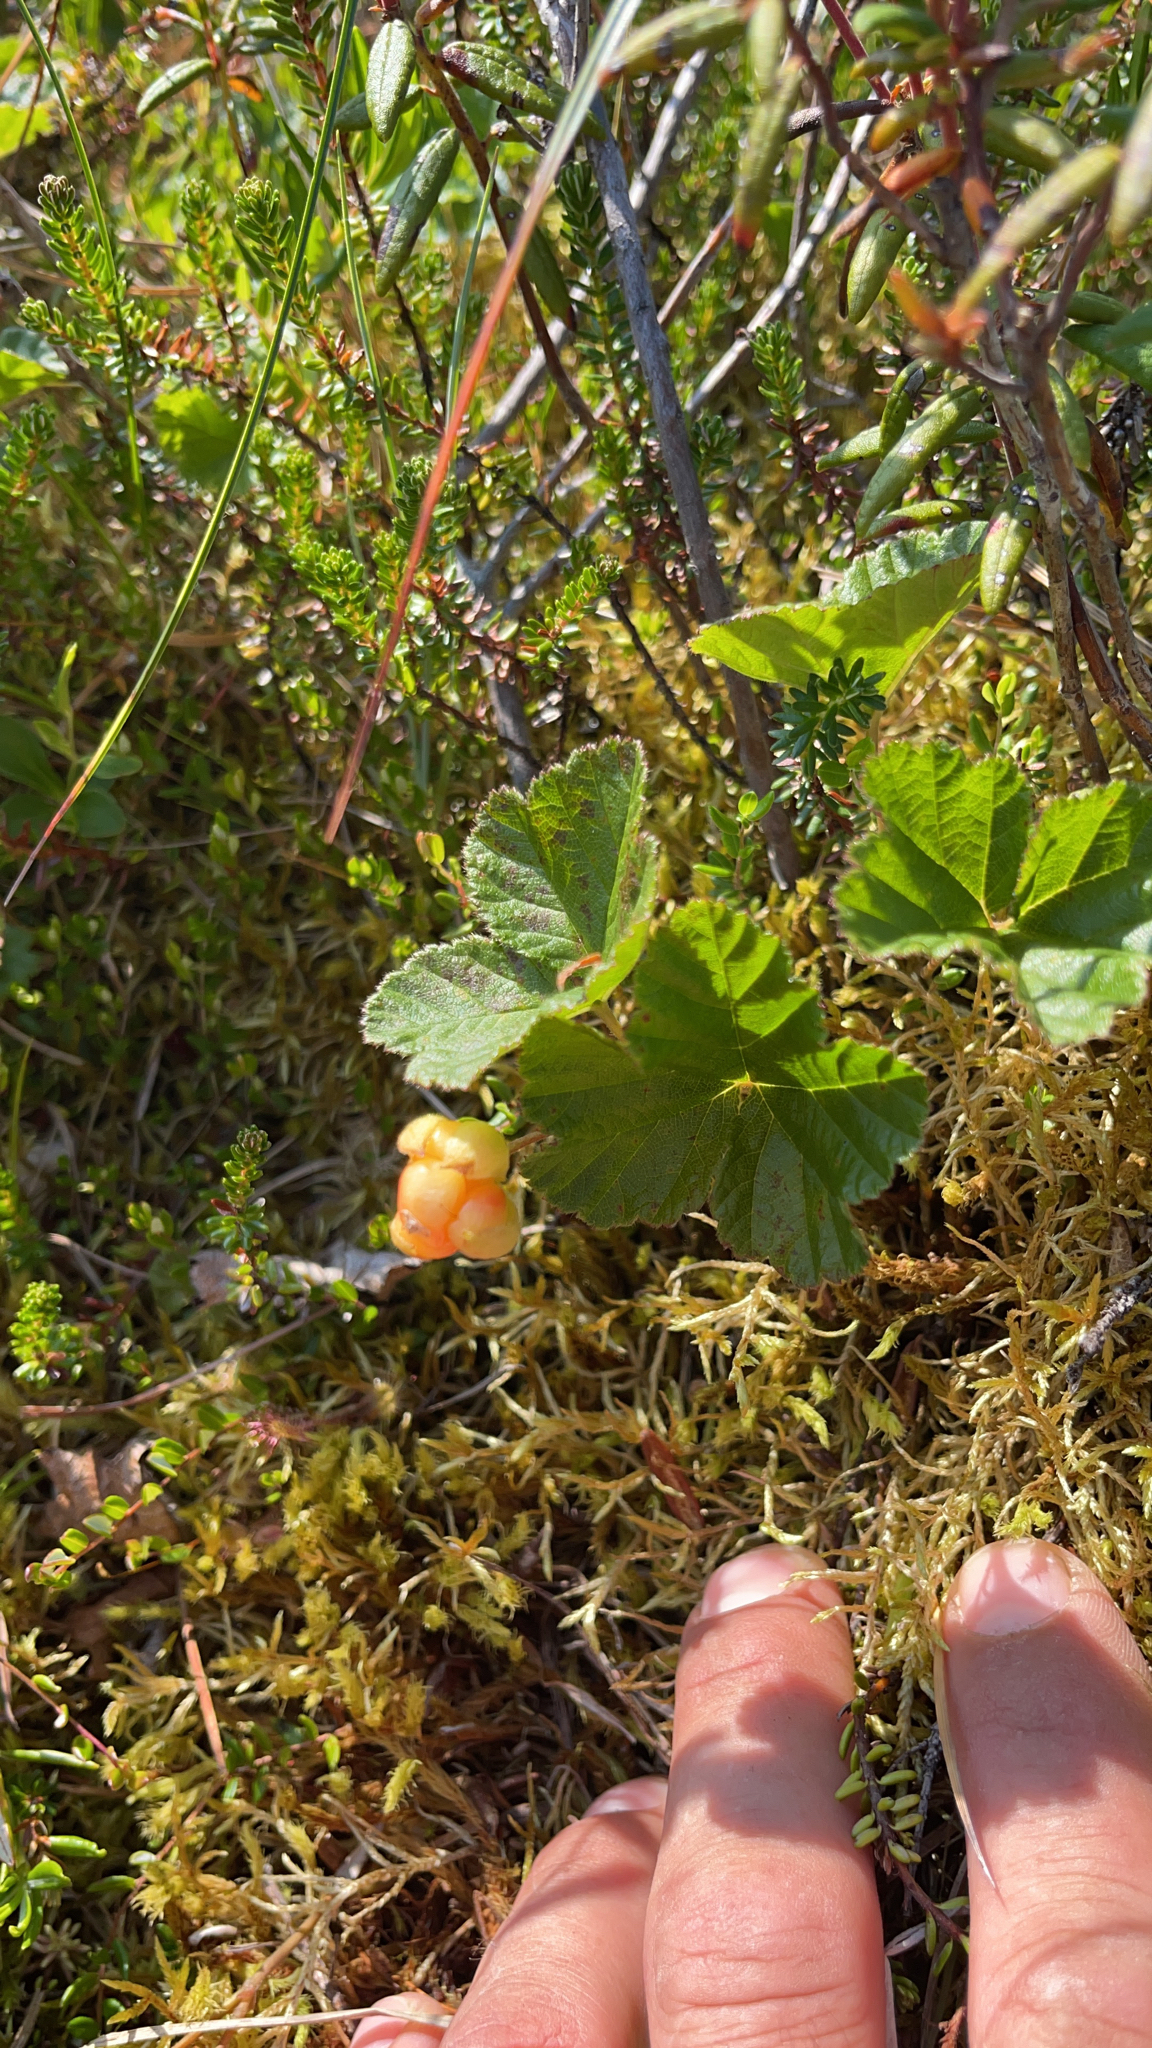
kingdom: Plantae
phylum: Tracheophyta
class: Magnoliopsida
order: Rosales
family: Rosaceae
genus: Rubus
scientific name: Rubus chamaemorus
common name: Cloudberry
